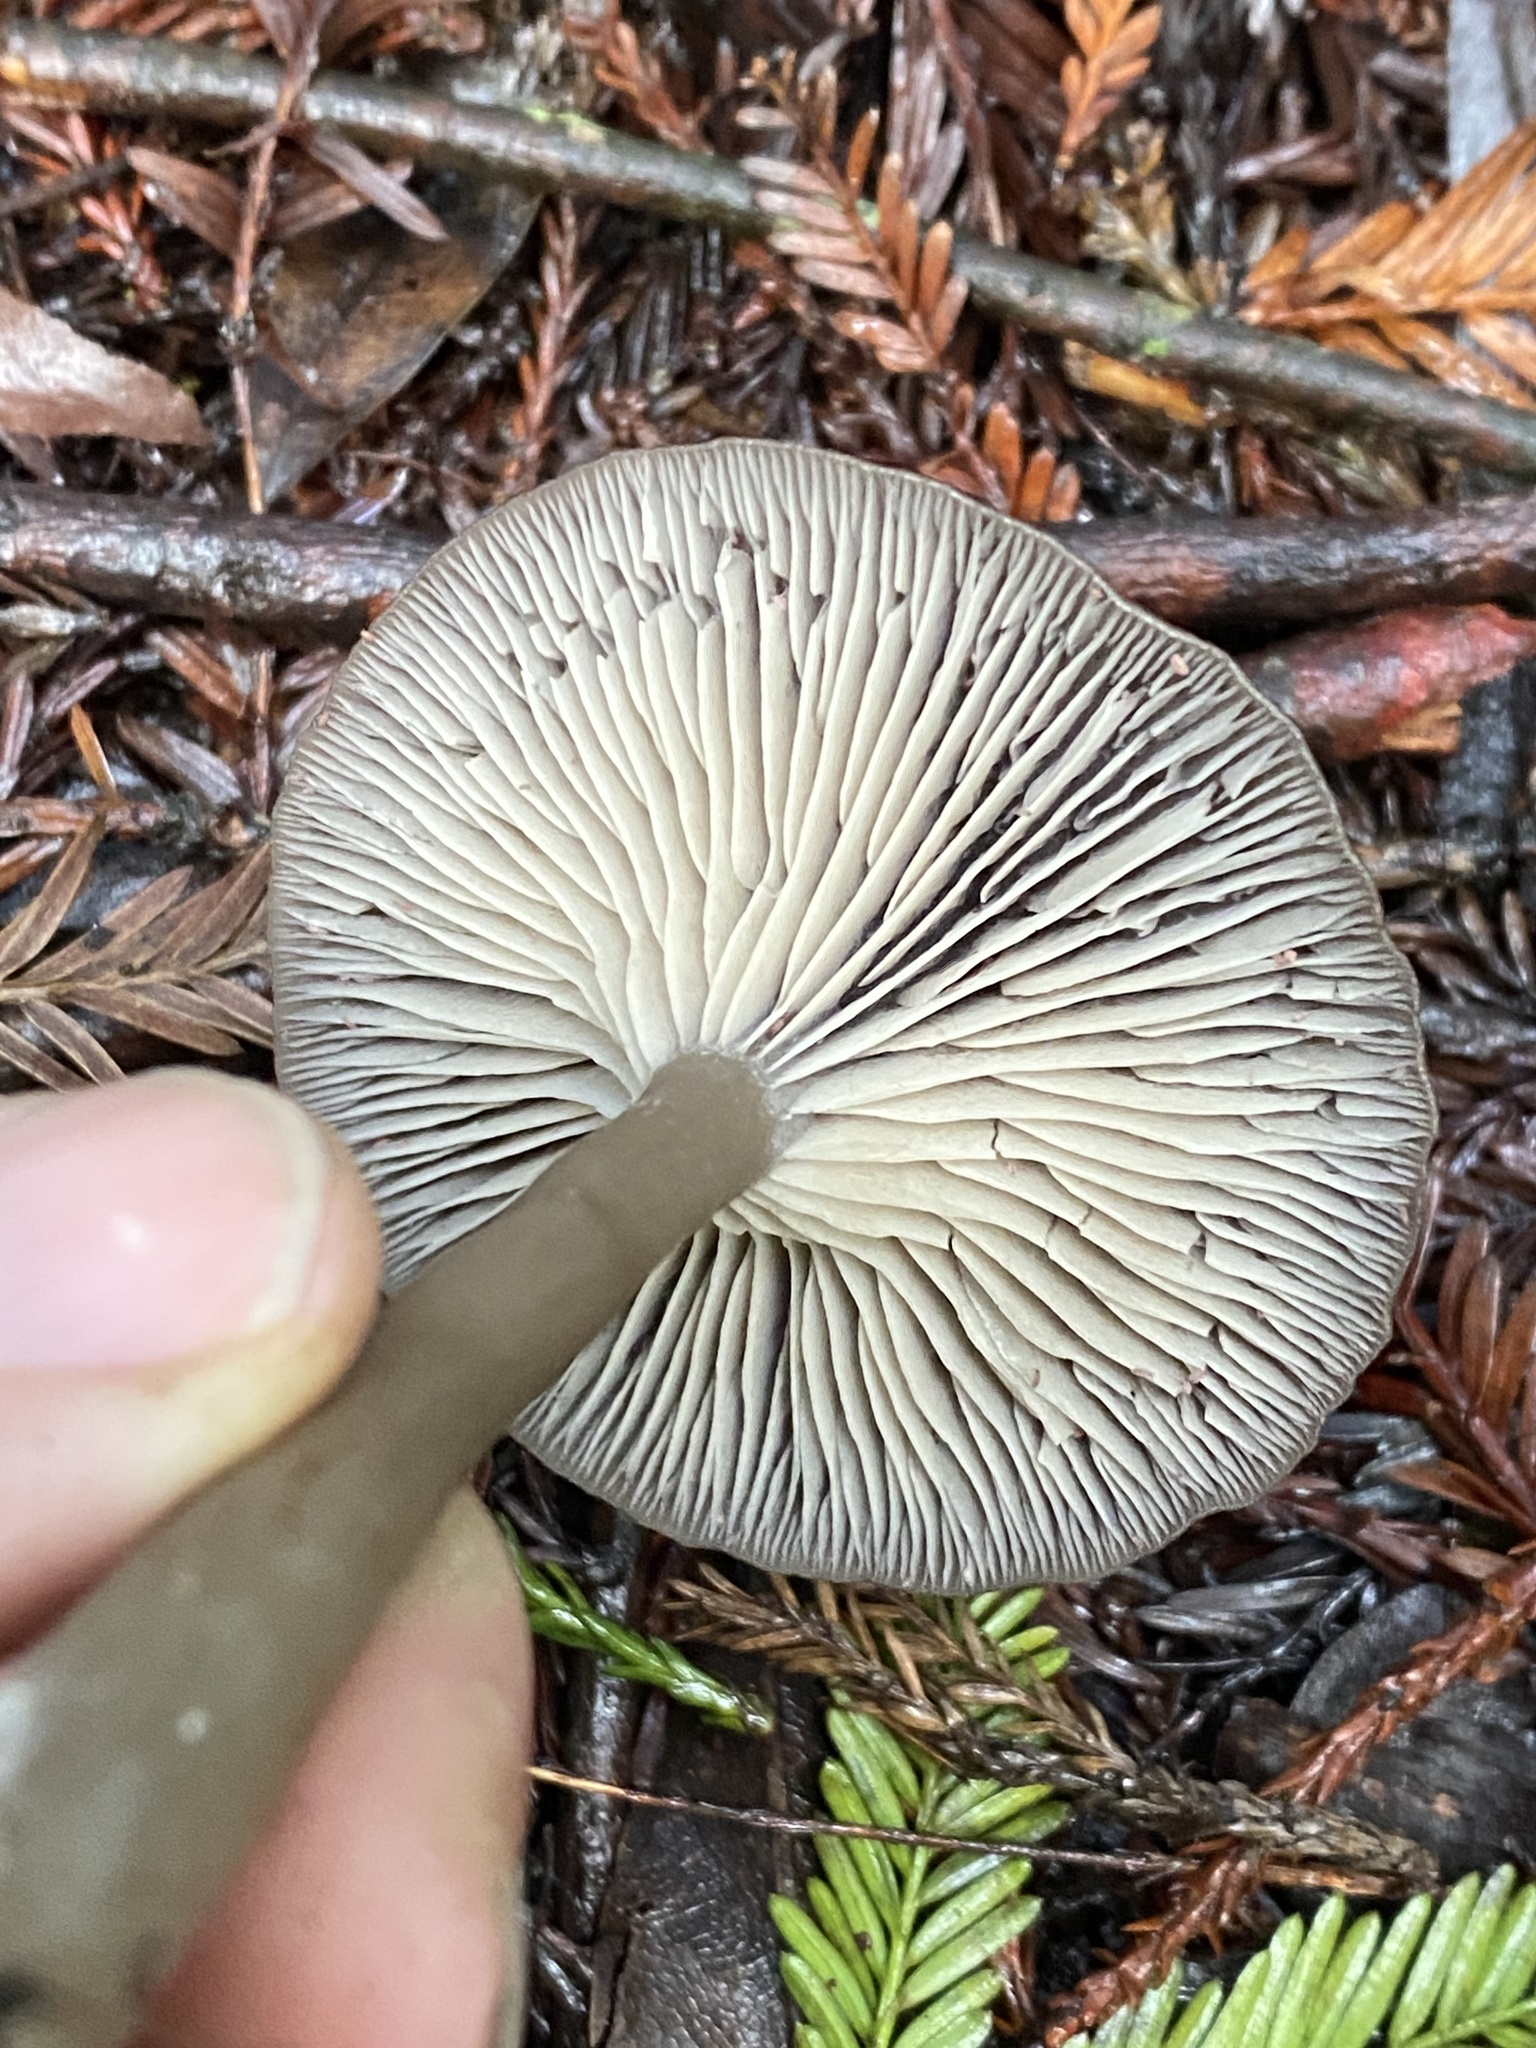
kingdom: Fungi
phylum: Basidiomycota
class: Agaricomycetes
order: Agaricales
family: Pseudoclitocybaceae
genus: Pseudoclitocybe
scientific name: Pseudoclitocybe cyathiformis
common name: Goblet
